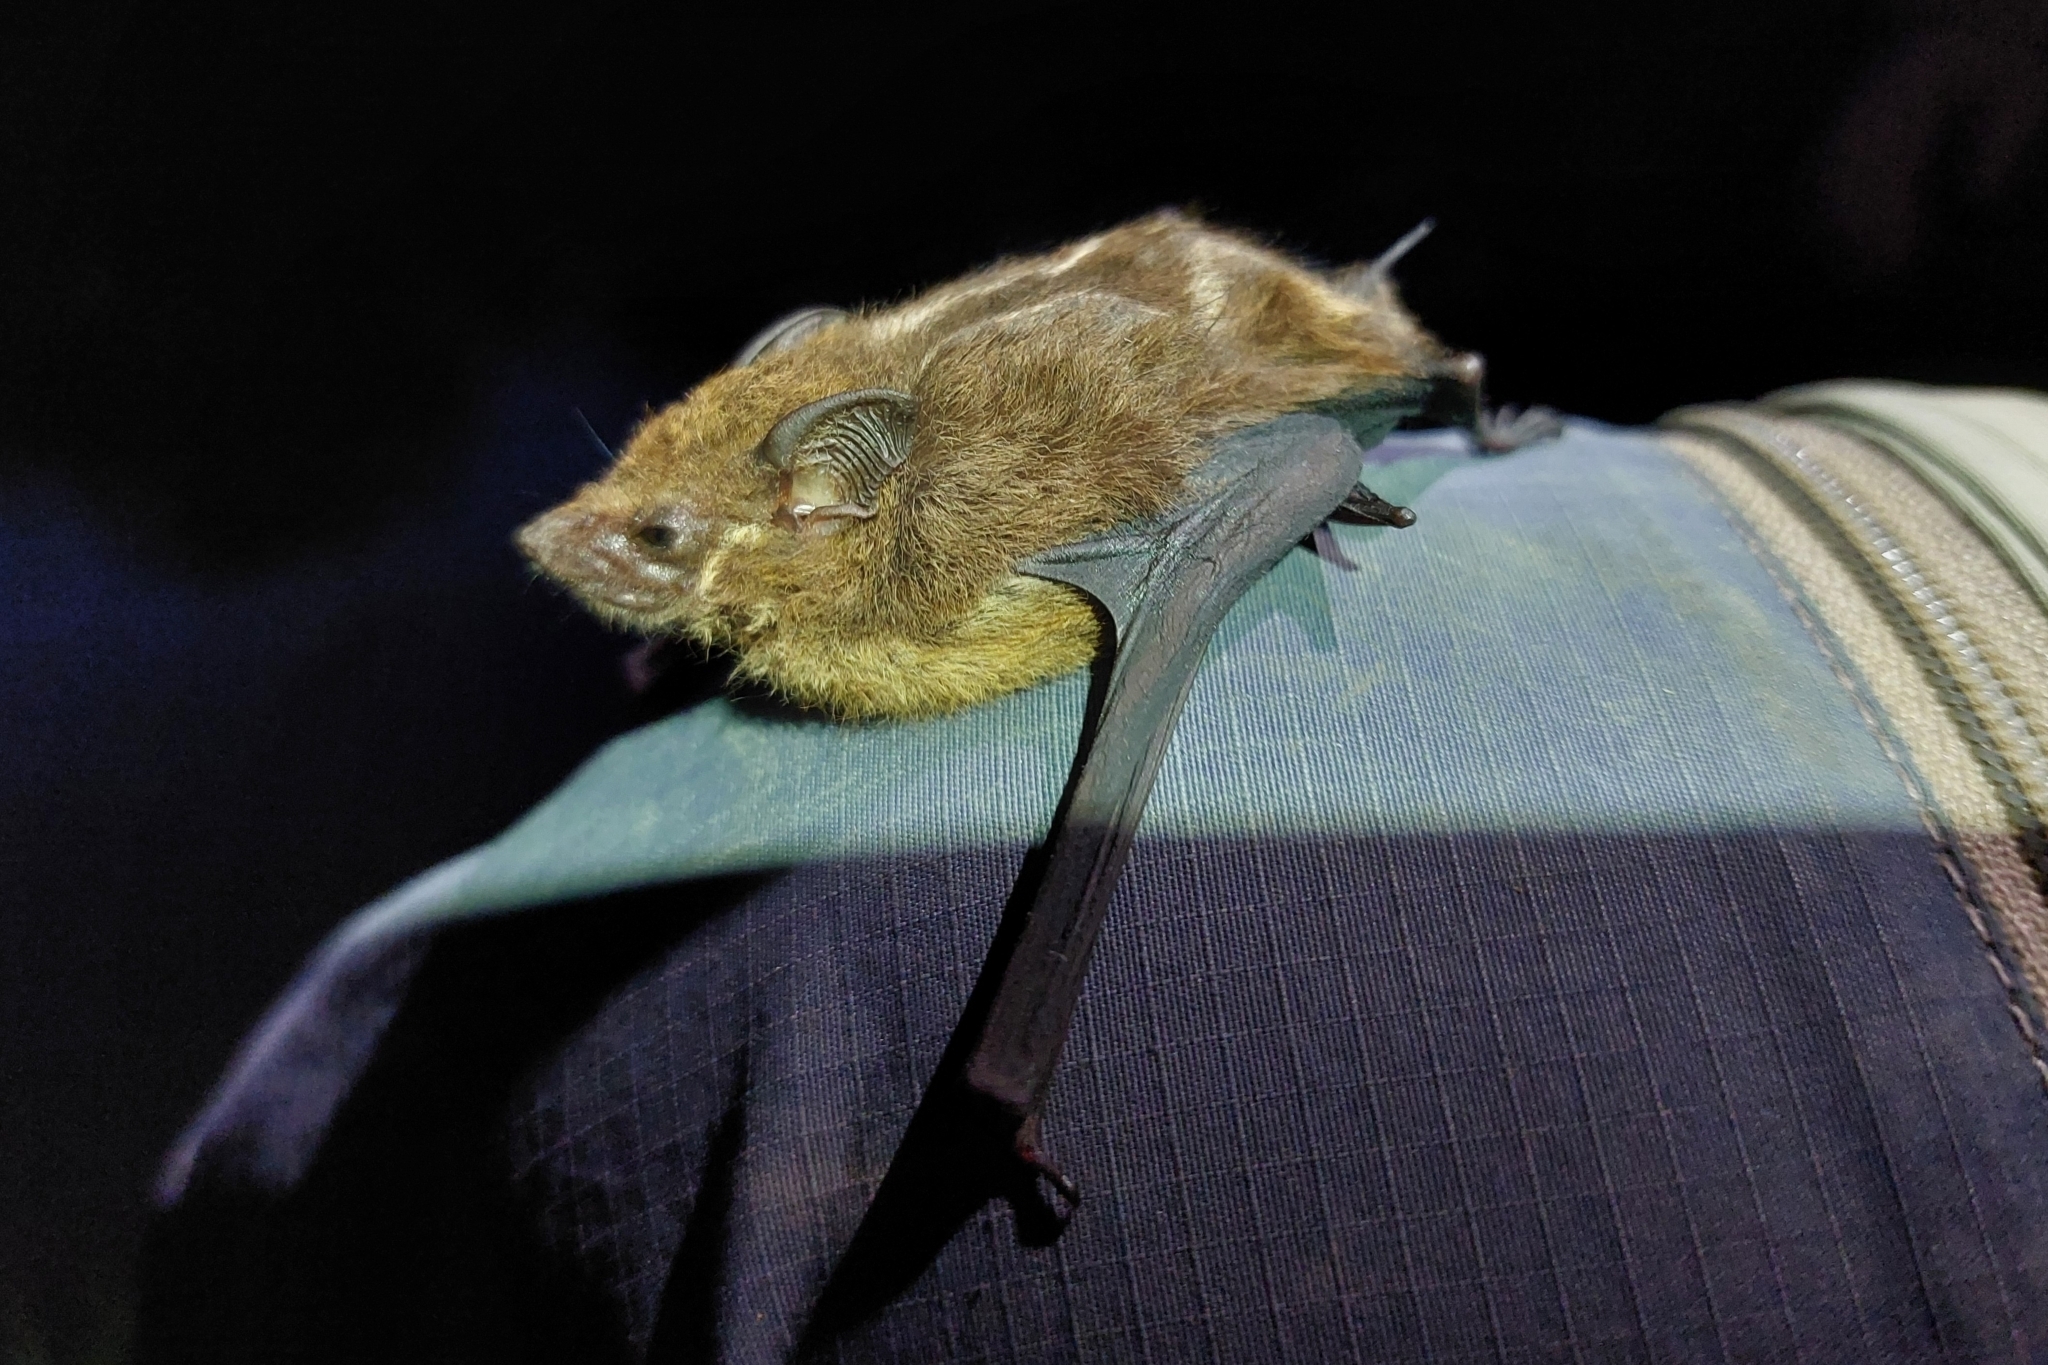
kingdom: Animalia
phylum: Chordata
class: Mammalia
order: Chiroptera
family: Emballonuridae
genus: Saccopteryx
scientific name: Saccopteryx leptura
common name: Lesser sac-winged bat
